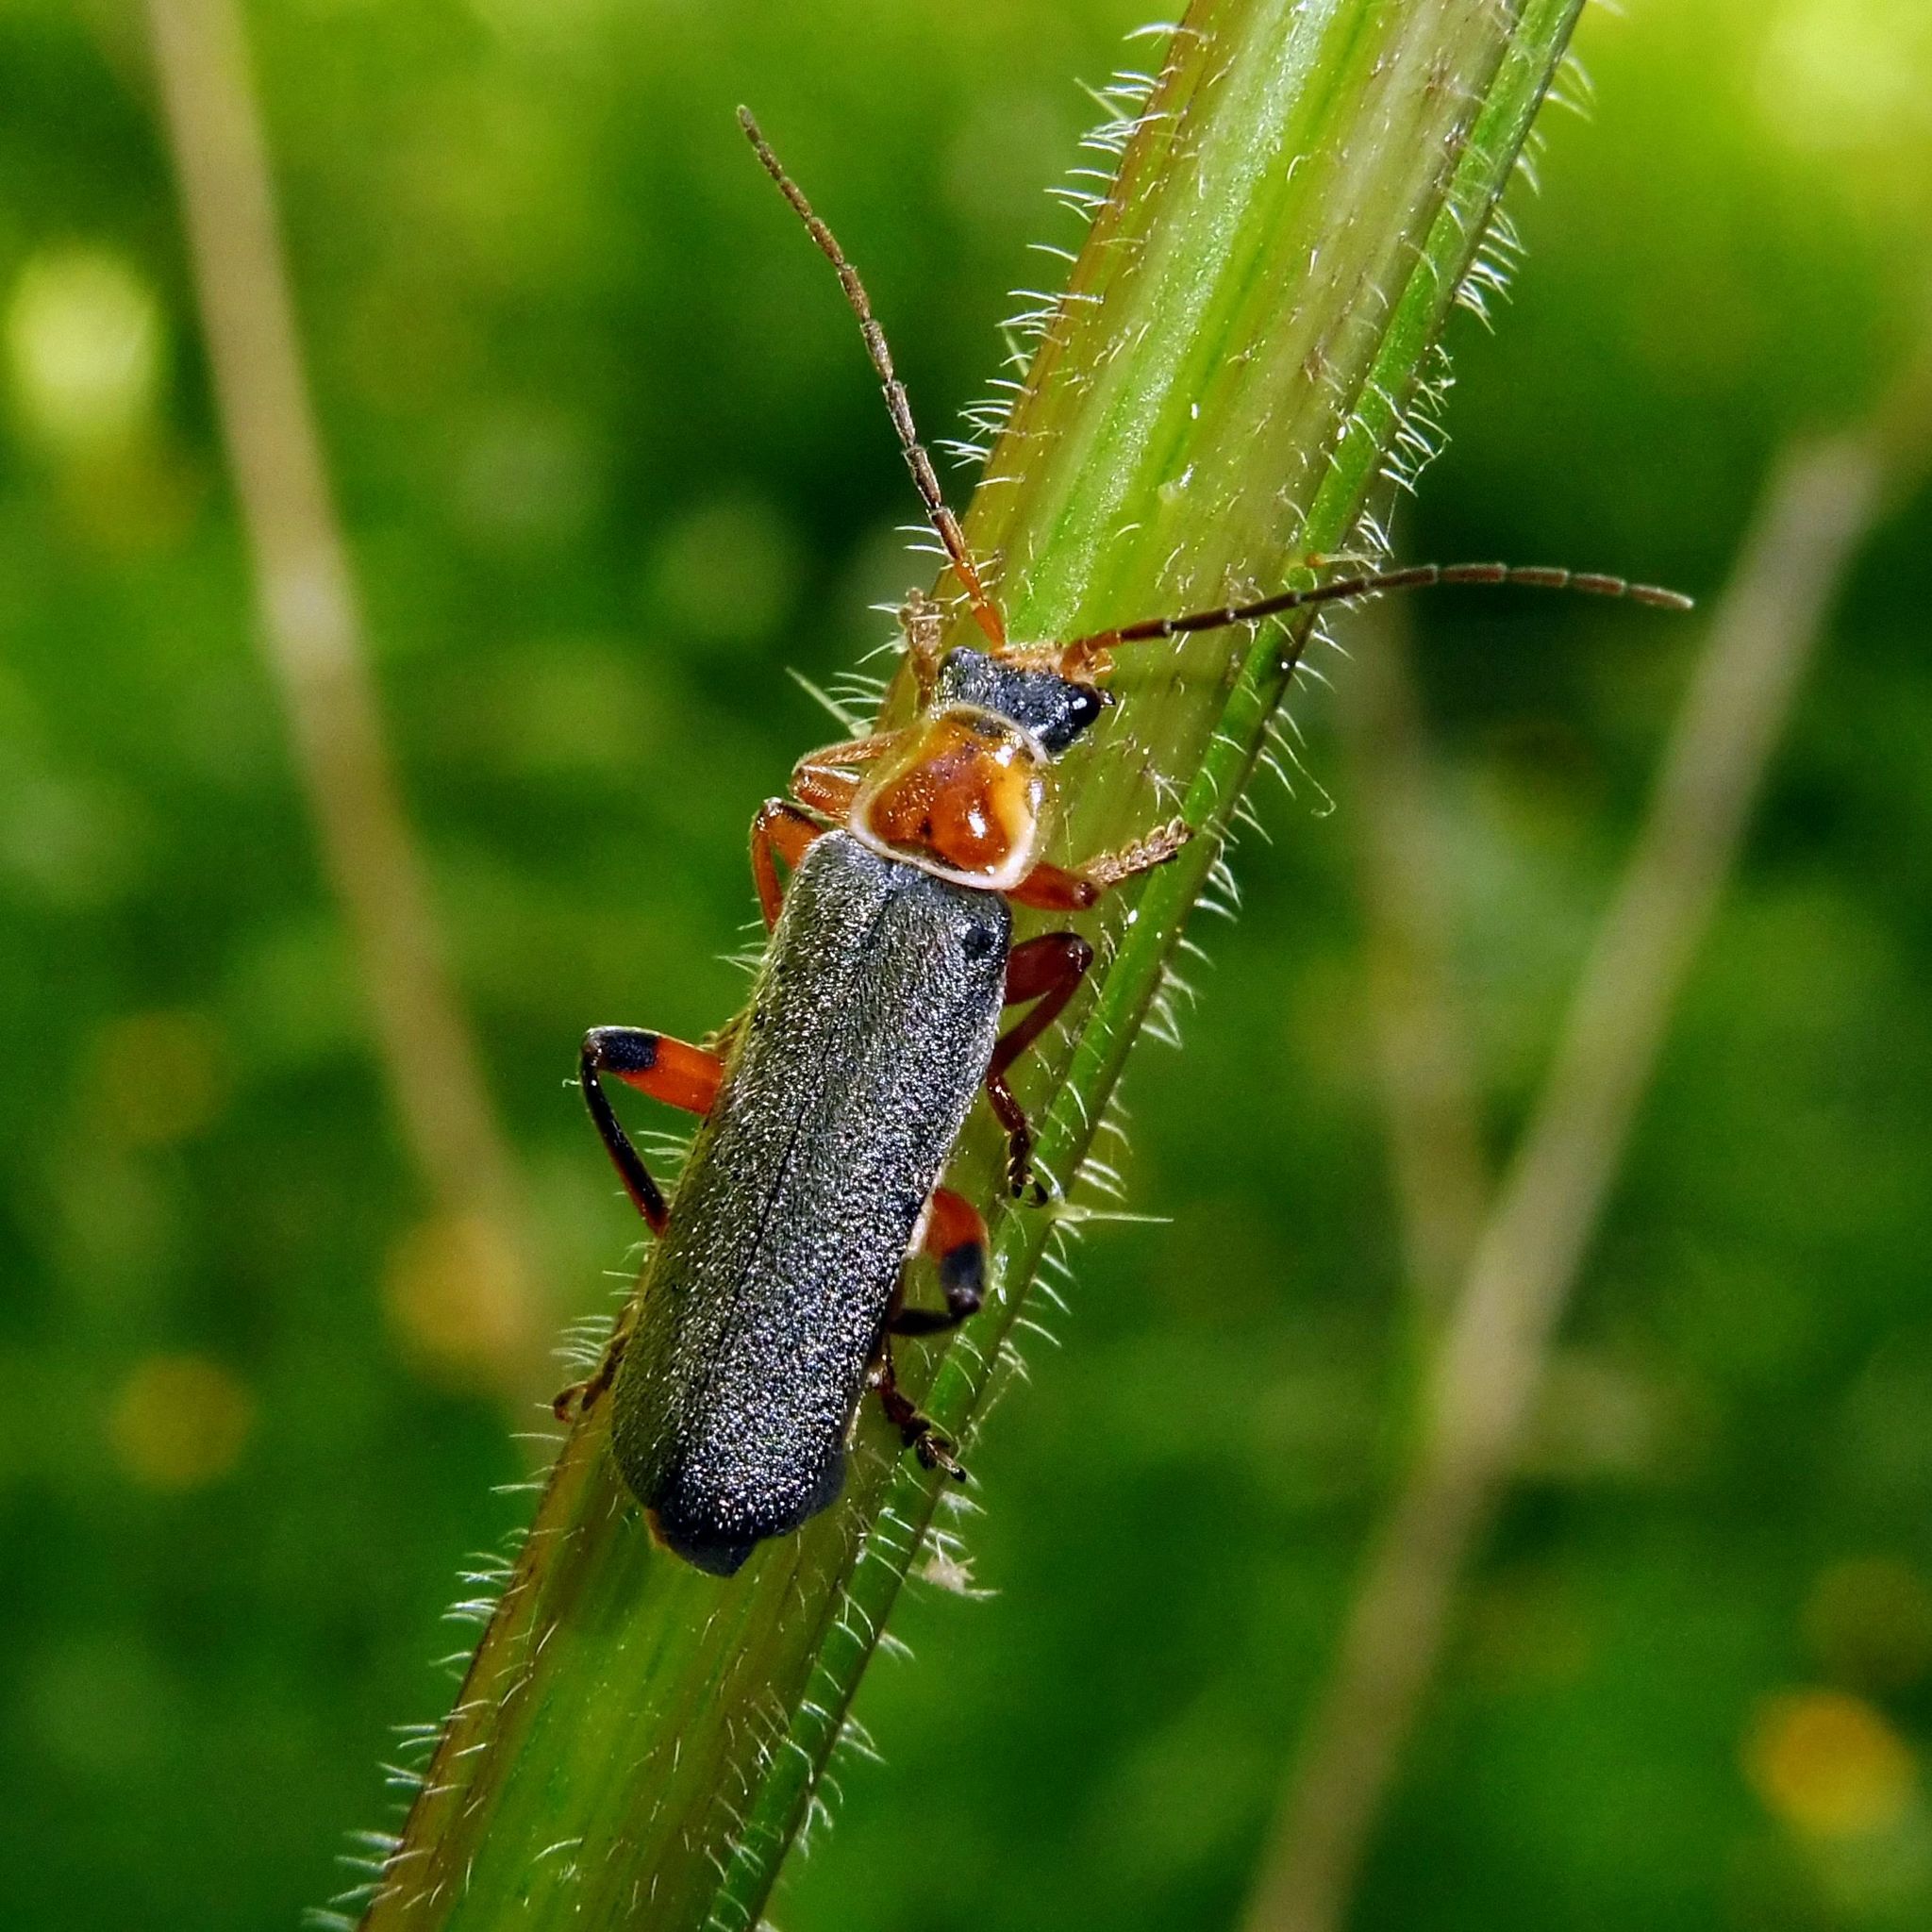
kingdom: Animalia
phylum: Arthropoda
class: Insecta
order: Coleoptera
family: Cantharidae
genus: Cantharis
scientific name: Cantharis nigricans
